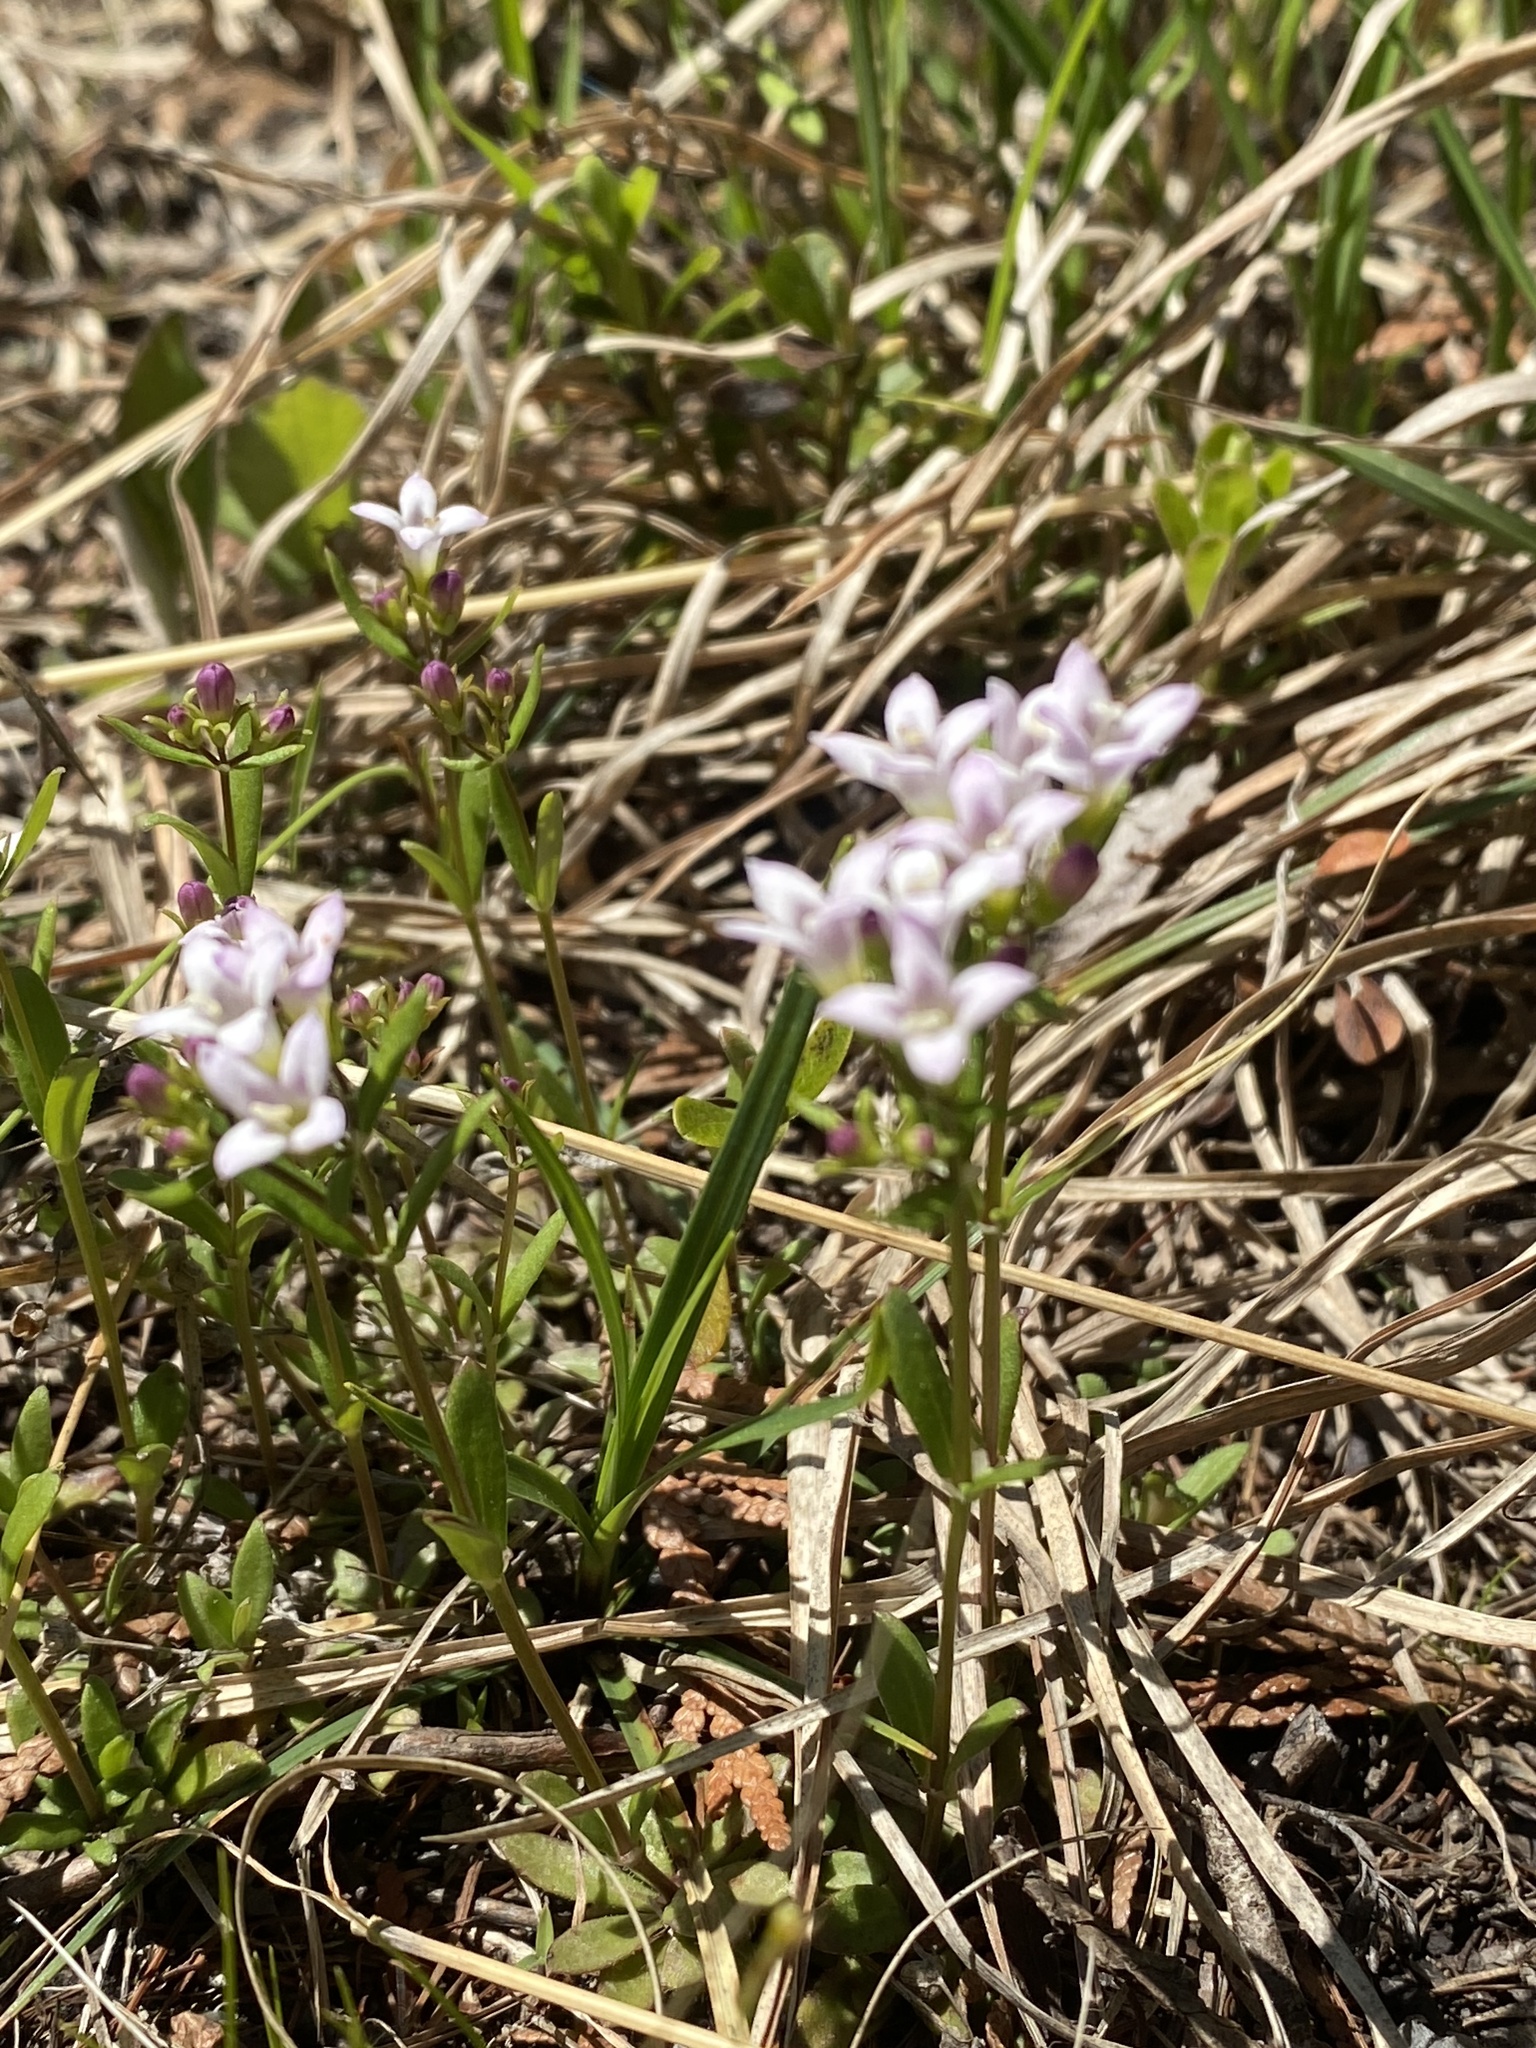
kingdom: Plantae
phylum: Tracheophyta
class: Magnoliopsida
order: Gentianales
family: Rubiaceae
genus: Houstonia
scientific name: Houstonia canadensis
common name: Fringed houstonia
